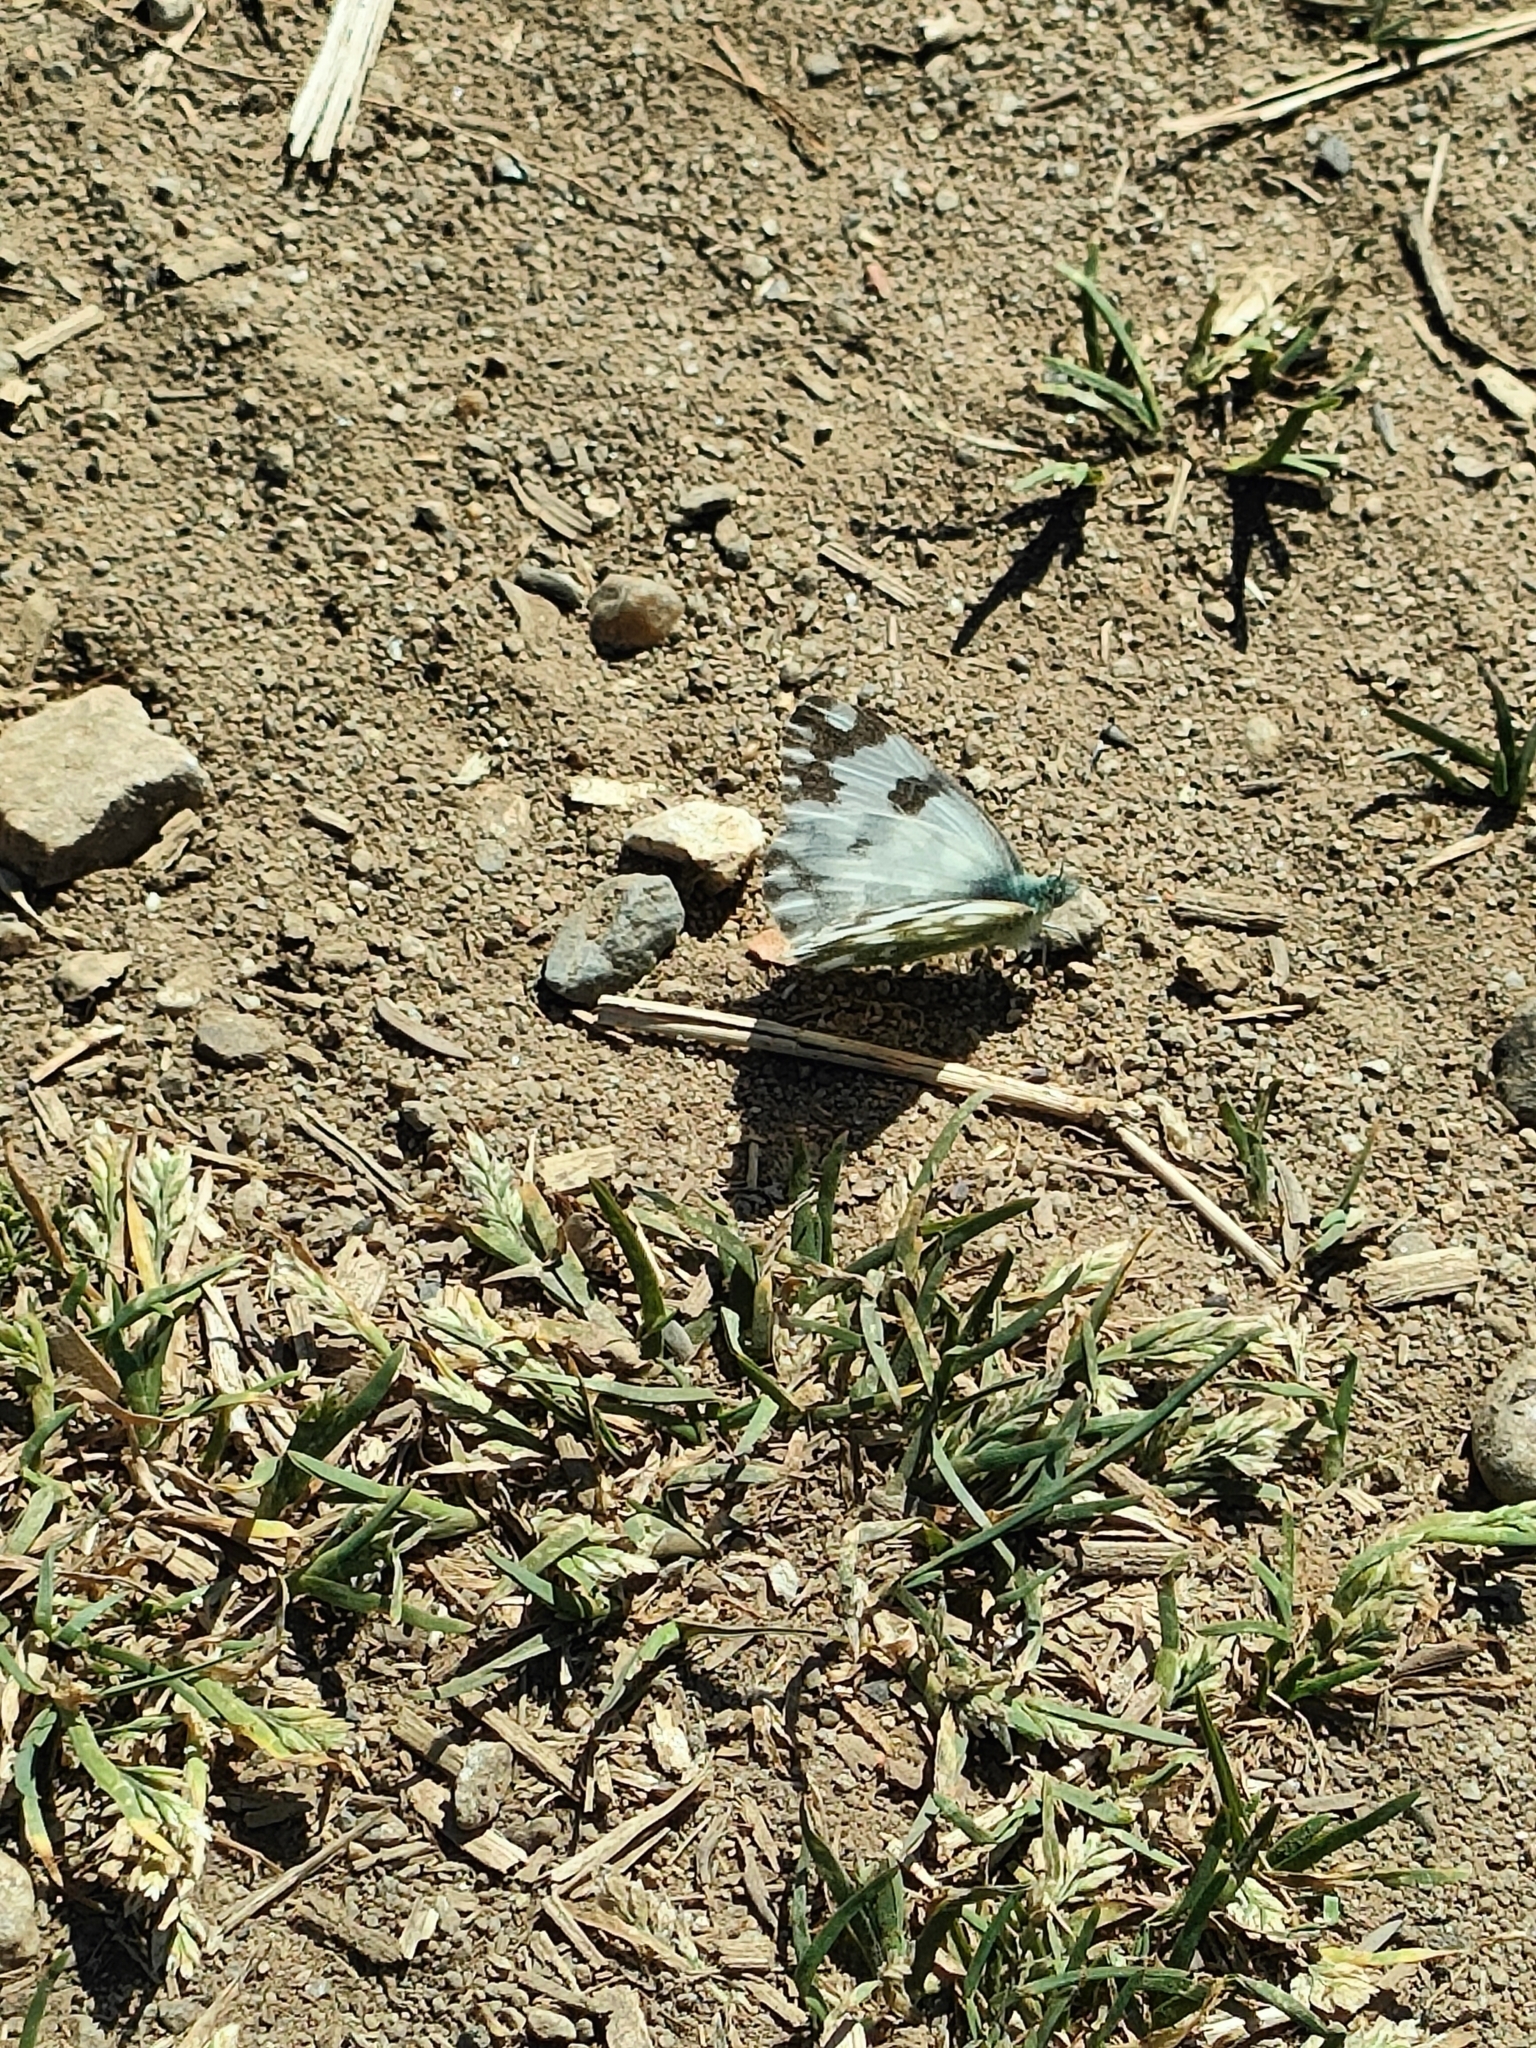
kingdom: Animalia
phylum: Arthropoda
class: Insecta
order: Lepidoptera
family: Pieridae
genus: Pontia
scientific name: Pontia edusa
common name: Eastern bath white
